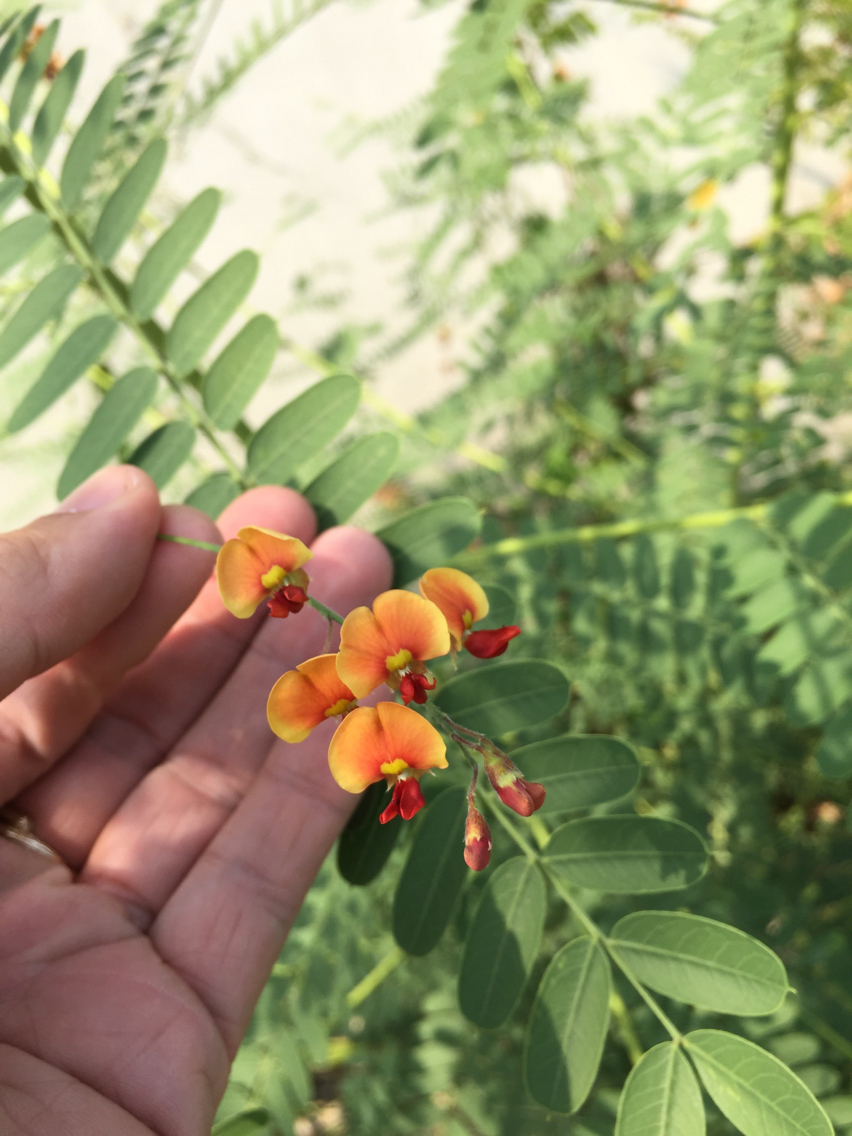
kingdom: Plantae
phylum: Tracheophyta
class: Magnoliopsida
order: Fabales
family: Fabaceae
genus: Sesbania
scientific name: Sesbania vesicaria
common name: Bagpod
